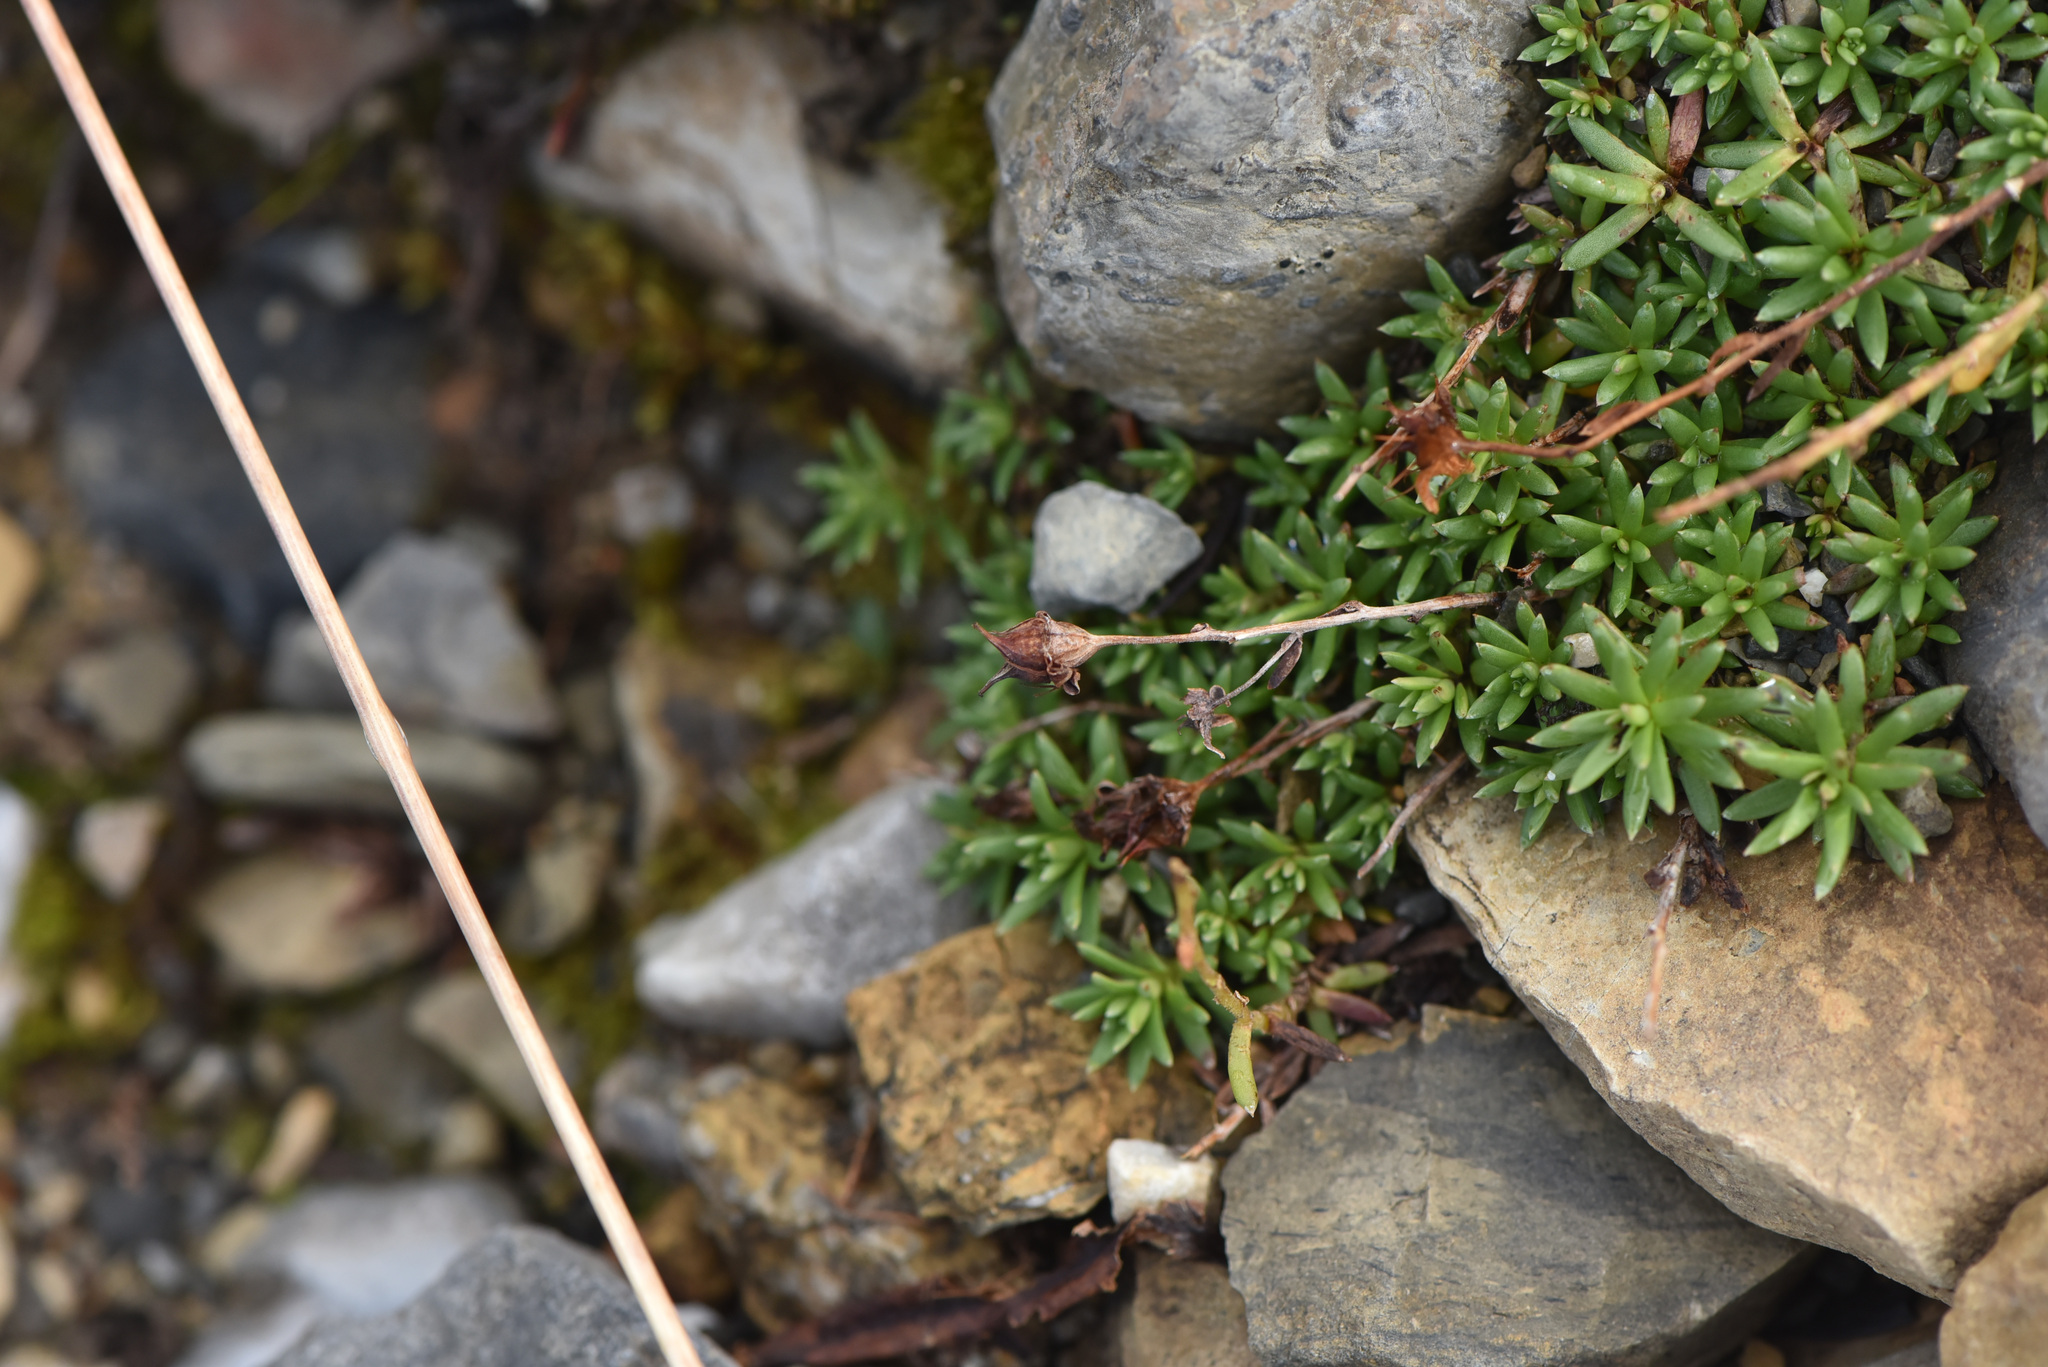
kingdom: Plantae
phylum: Tracheophyta
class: Magnoliopsida
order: Saxifragales
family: Saxifragaceae
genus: Saxifraga
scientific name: Saxifraga aizoides
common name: Yellow mountain saxifrage
